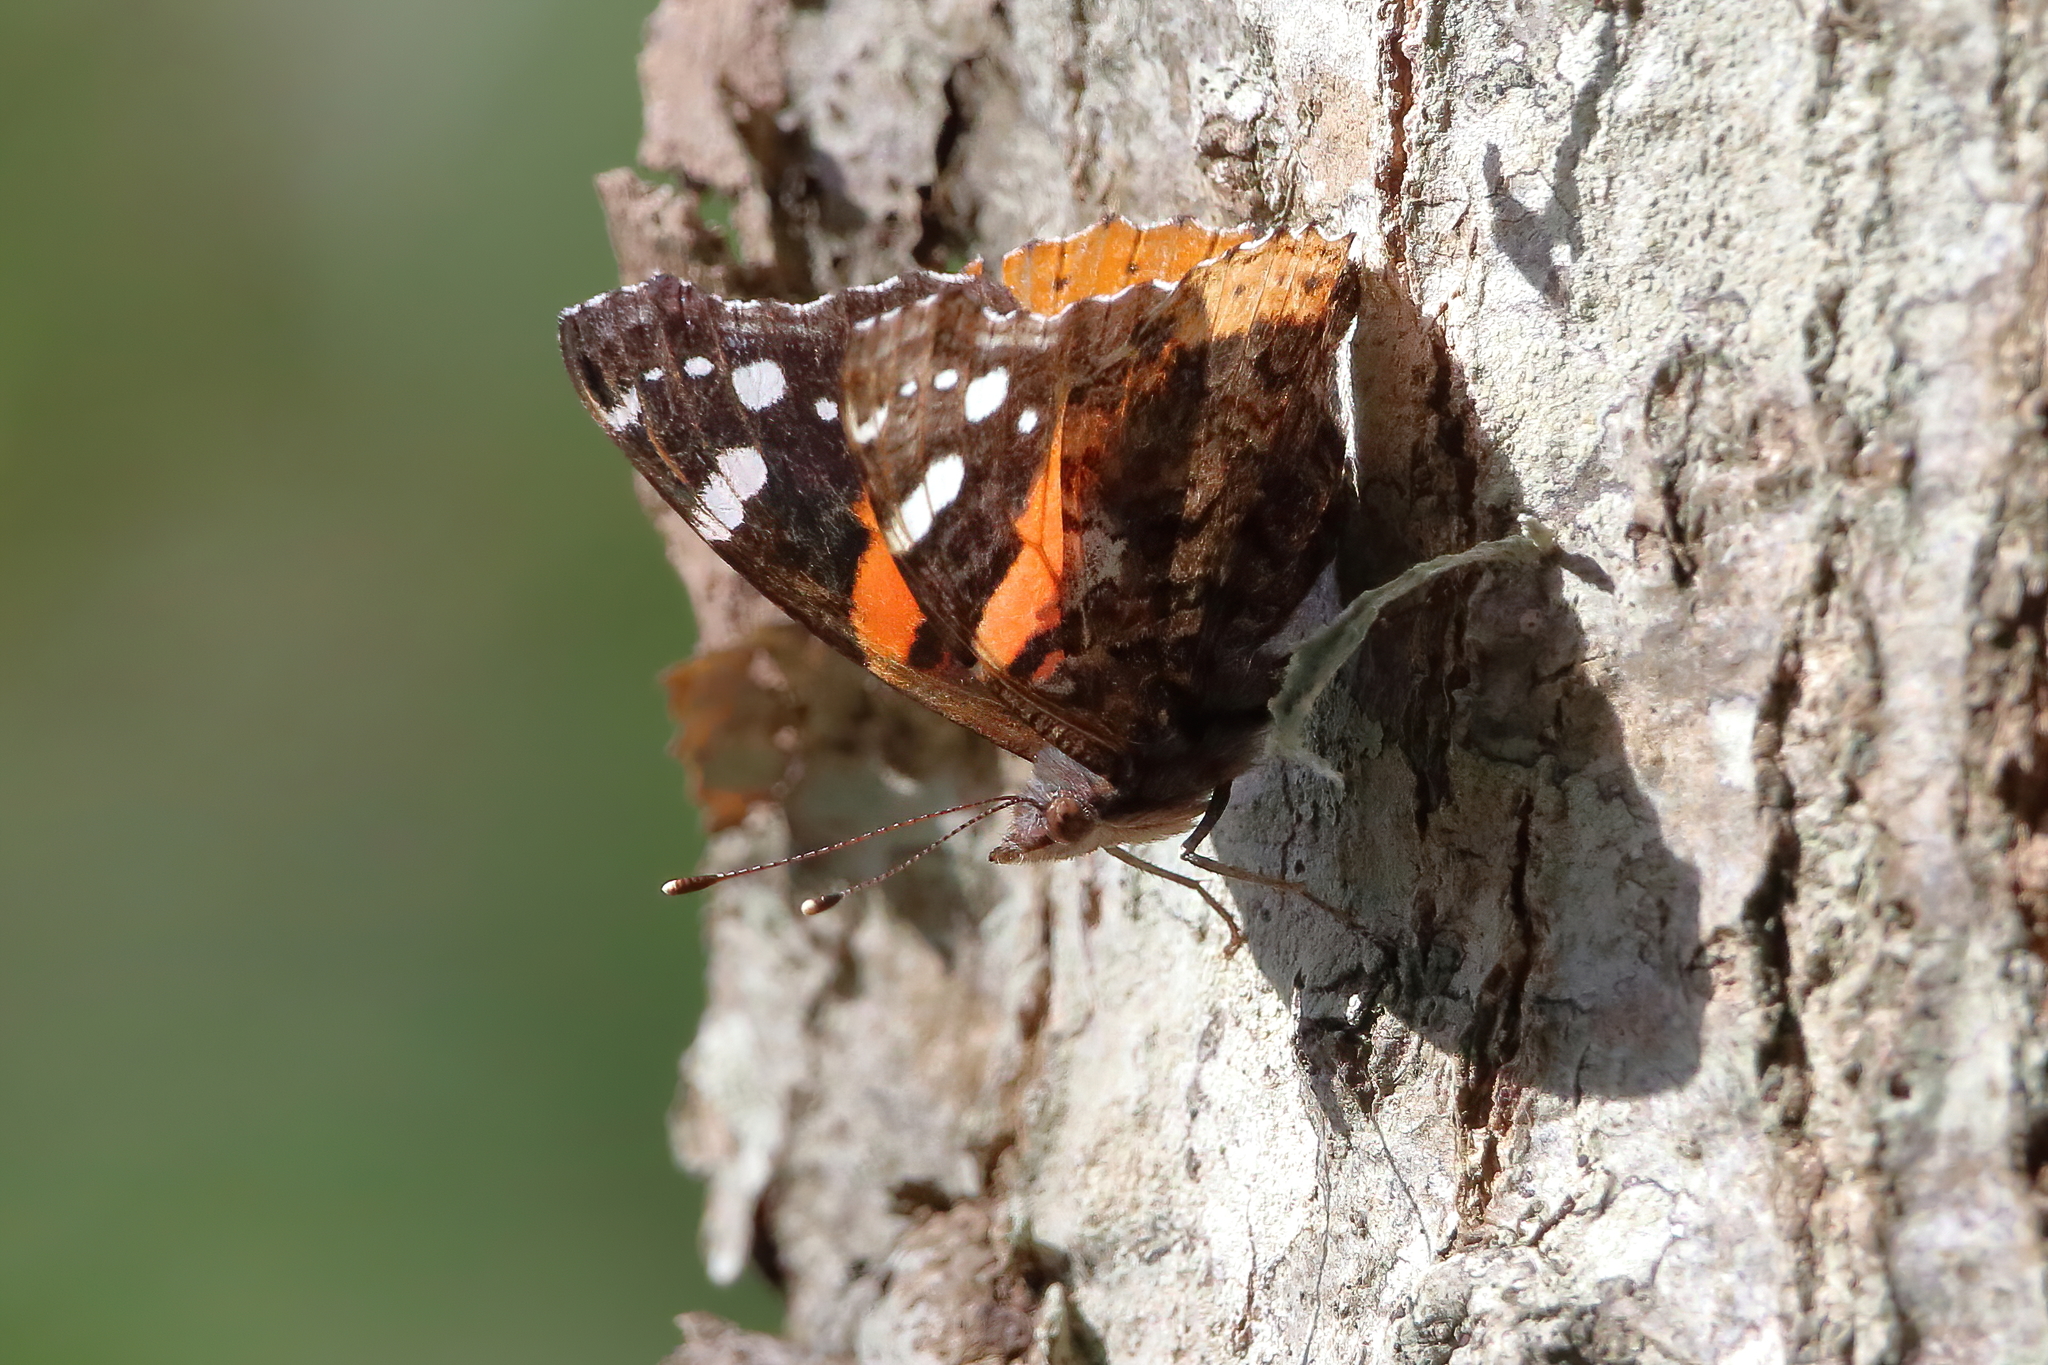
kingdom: Animalia
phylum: Arthropoda
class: Insecta
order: Lepidoptera
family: Nymphalidae
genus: Vanessa
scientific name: Vanessa atalanta
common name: Red admiral
